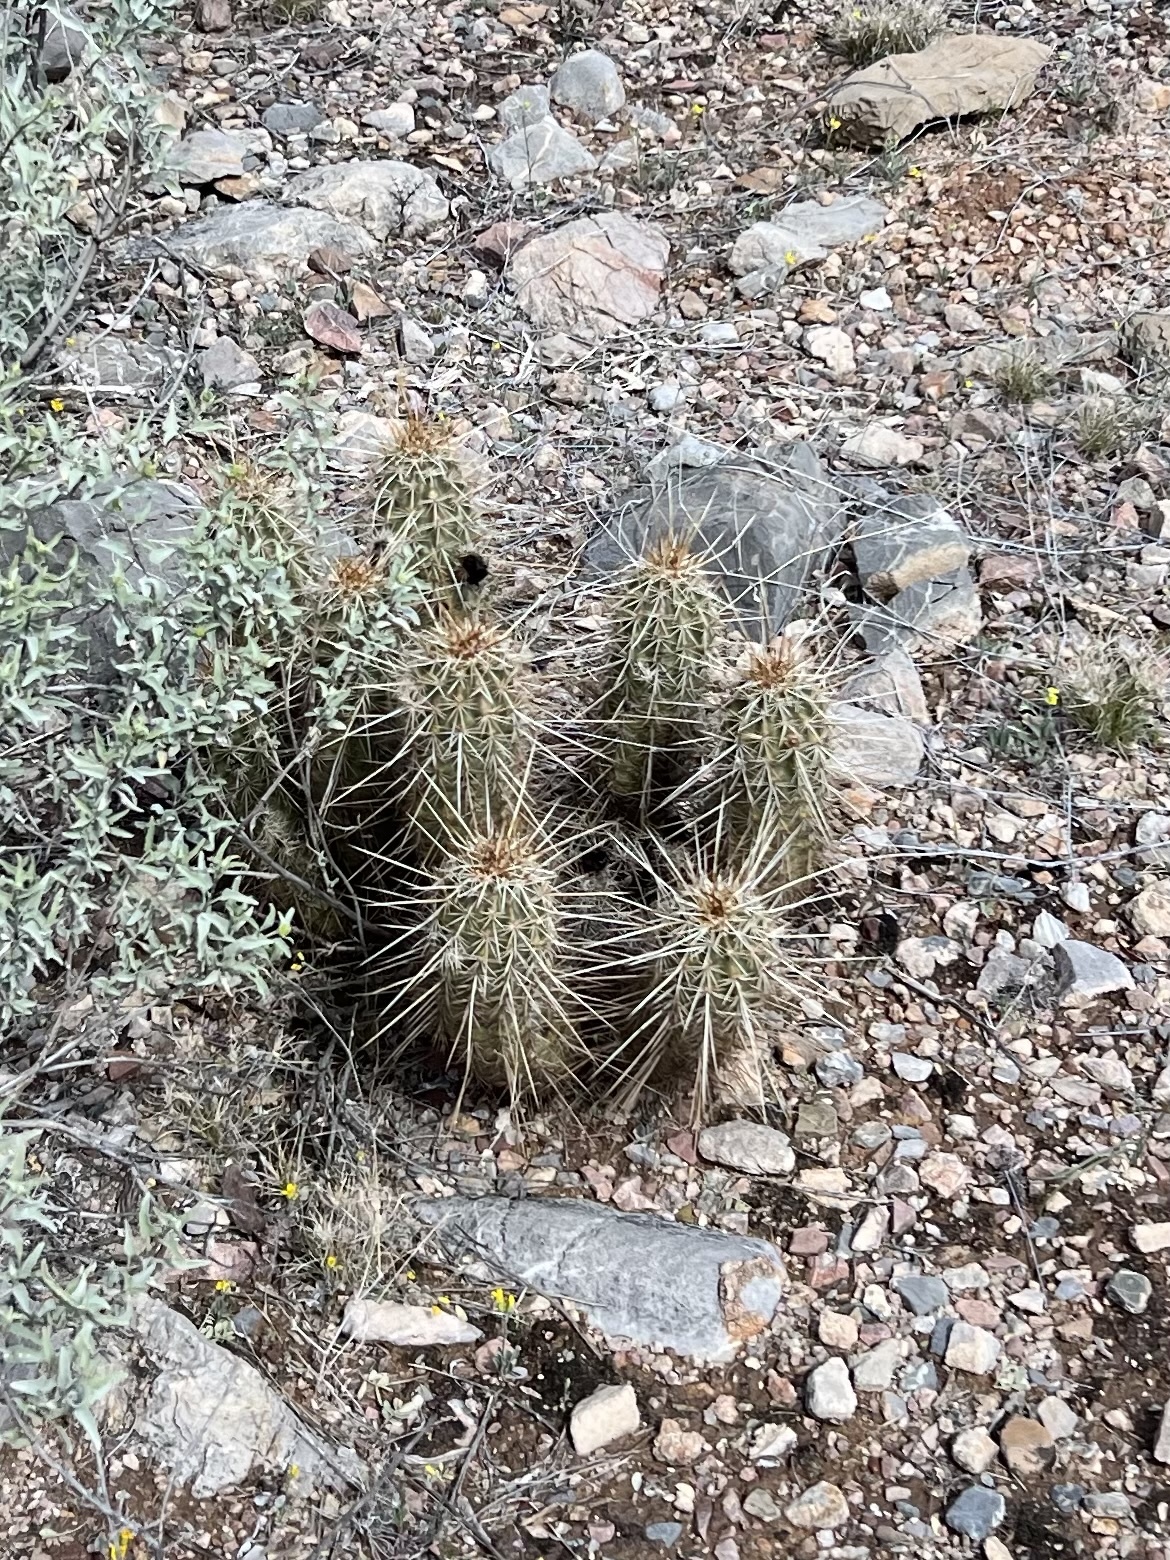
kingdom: Plantae
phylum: Tracheophyta
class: Magnoliopsida
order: Caryophyllales
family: Cactaceae
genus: Echinocereus
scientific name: Echinocereus fasciculatus
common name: Bundle hedgehog
